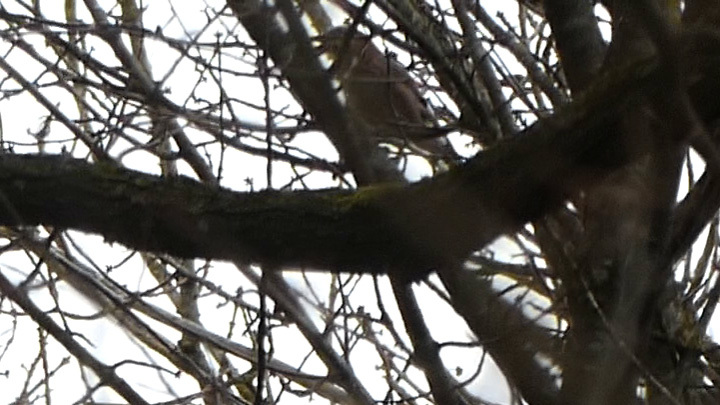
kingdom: Animalia
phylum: Chordata
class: Aves
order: Passeriformes
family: Corvidae
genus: Garrulus
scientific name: Garrulus glandarius
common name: Eurasian jay
